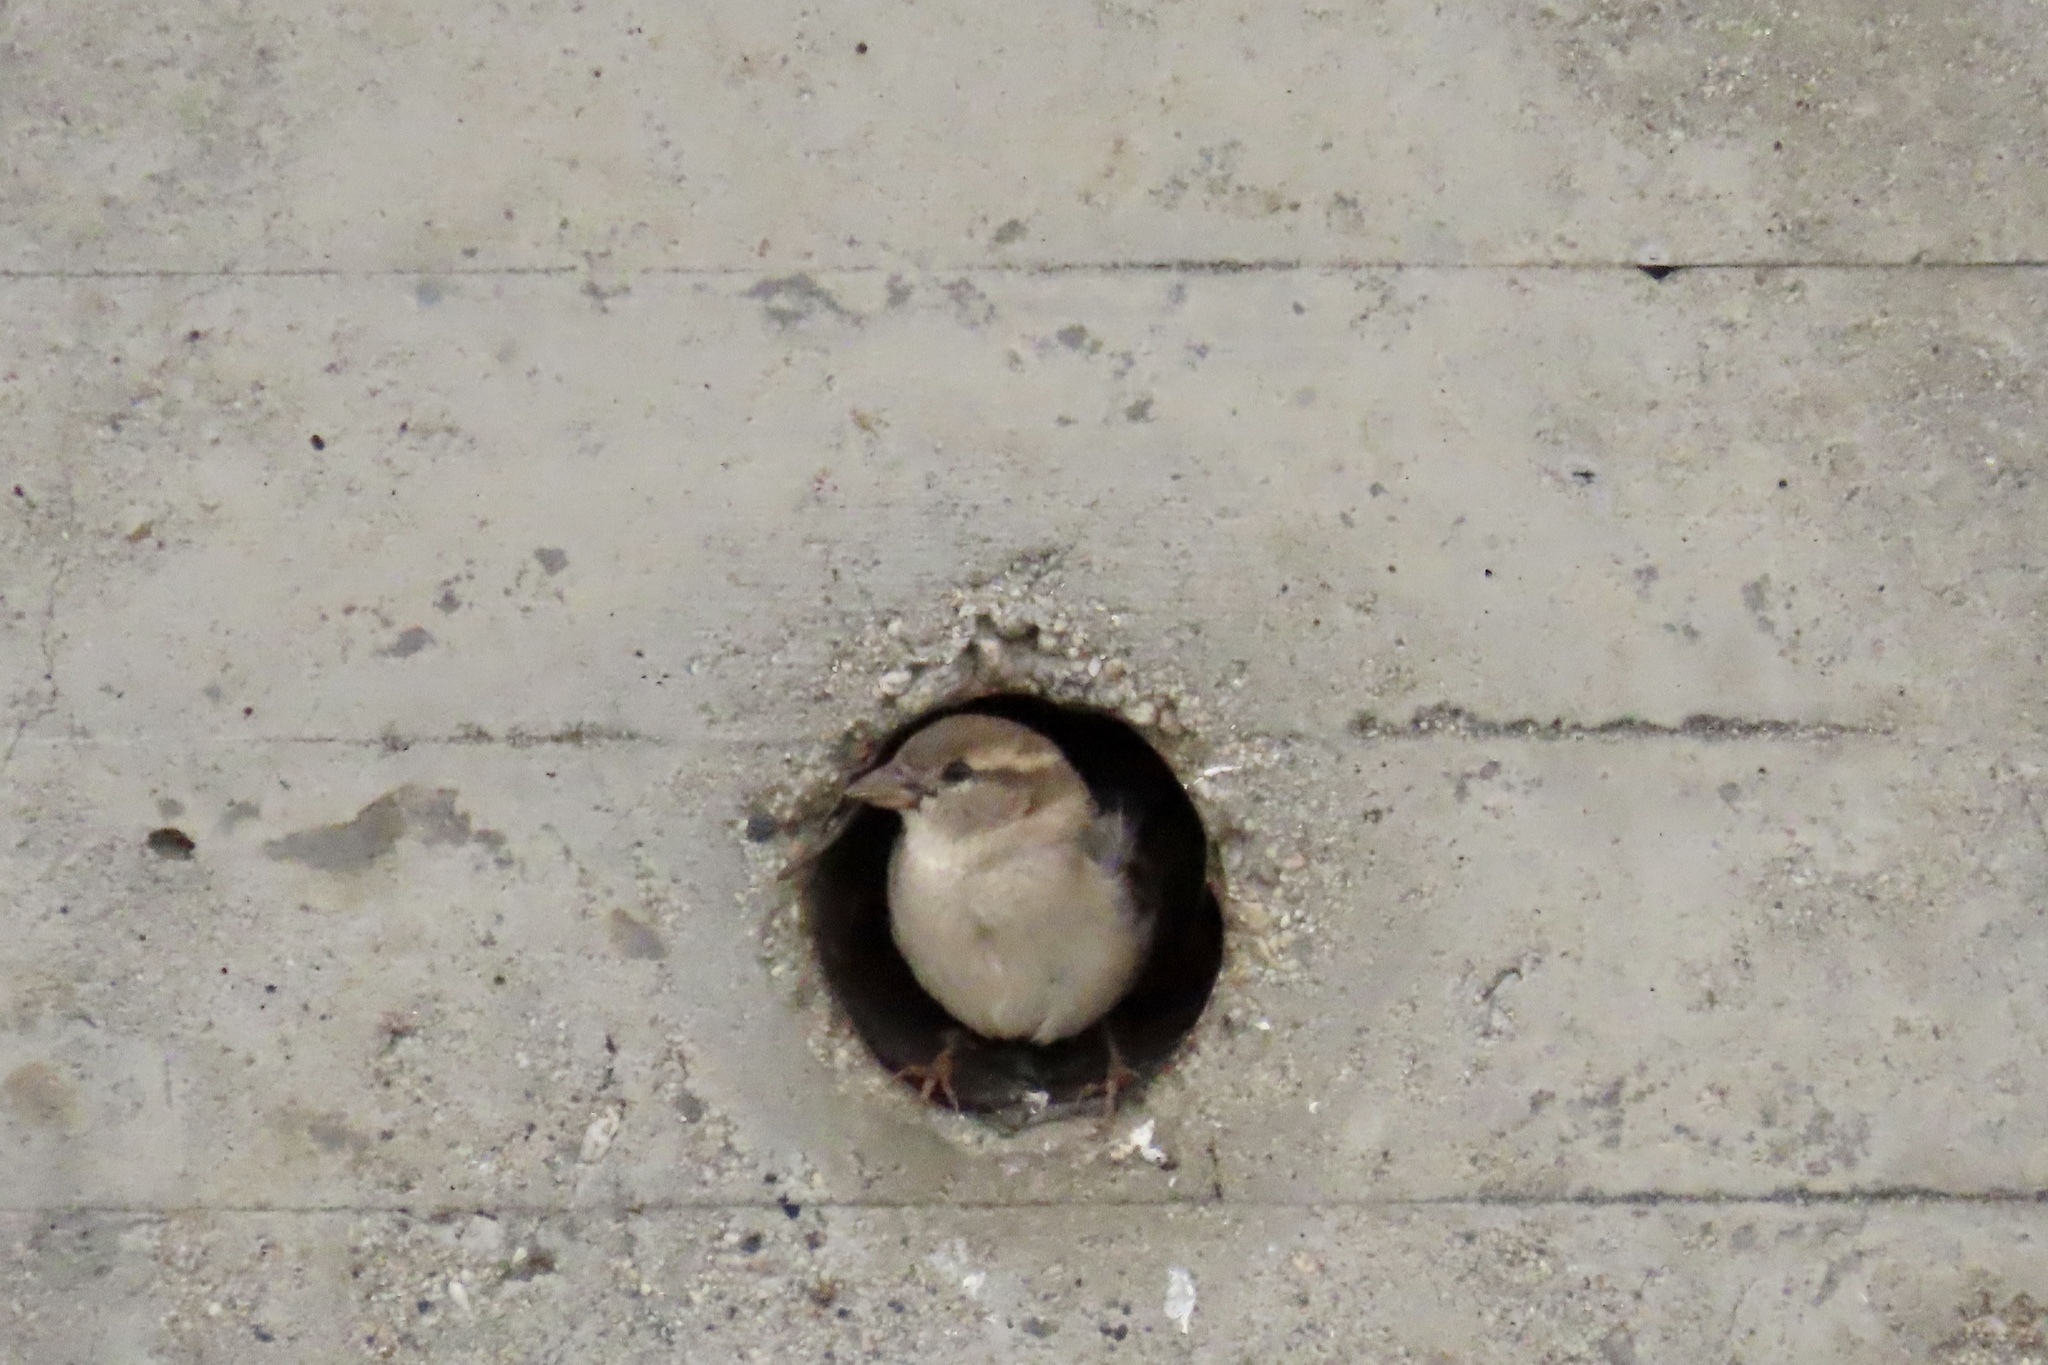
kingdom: Animalia
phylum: Chordata
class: Aves
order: Passeriformes
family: Passeridae
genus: Passer
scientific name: Passer domesticus
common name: House sparrow
